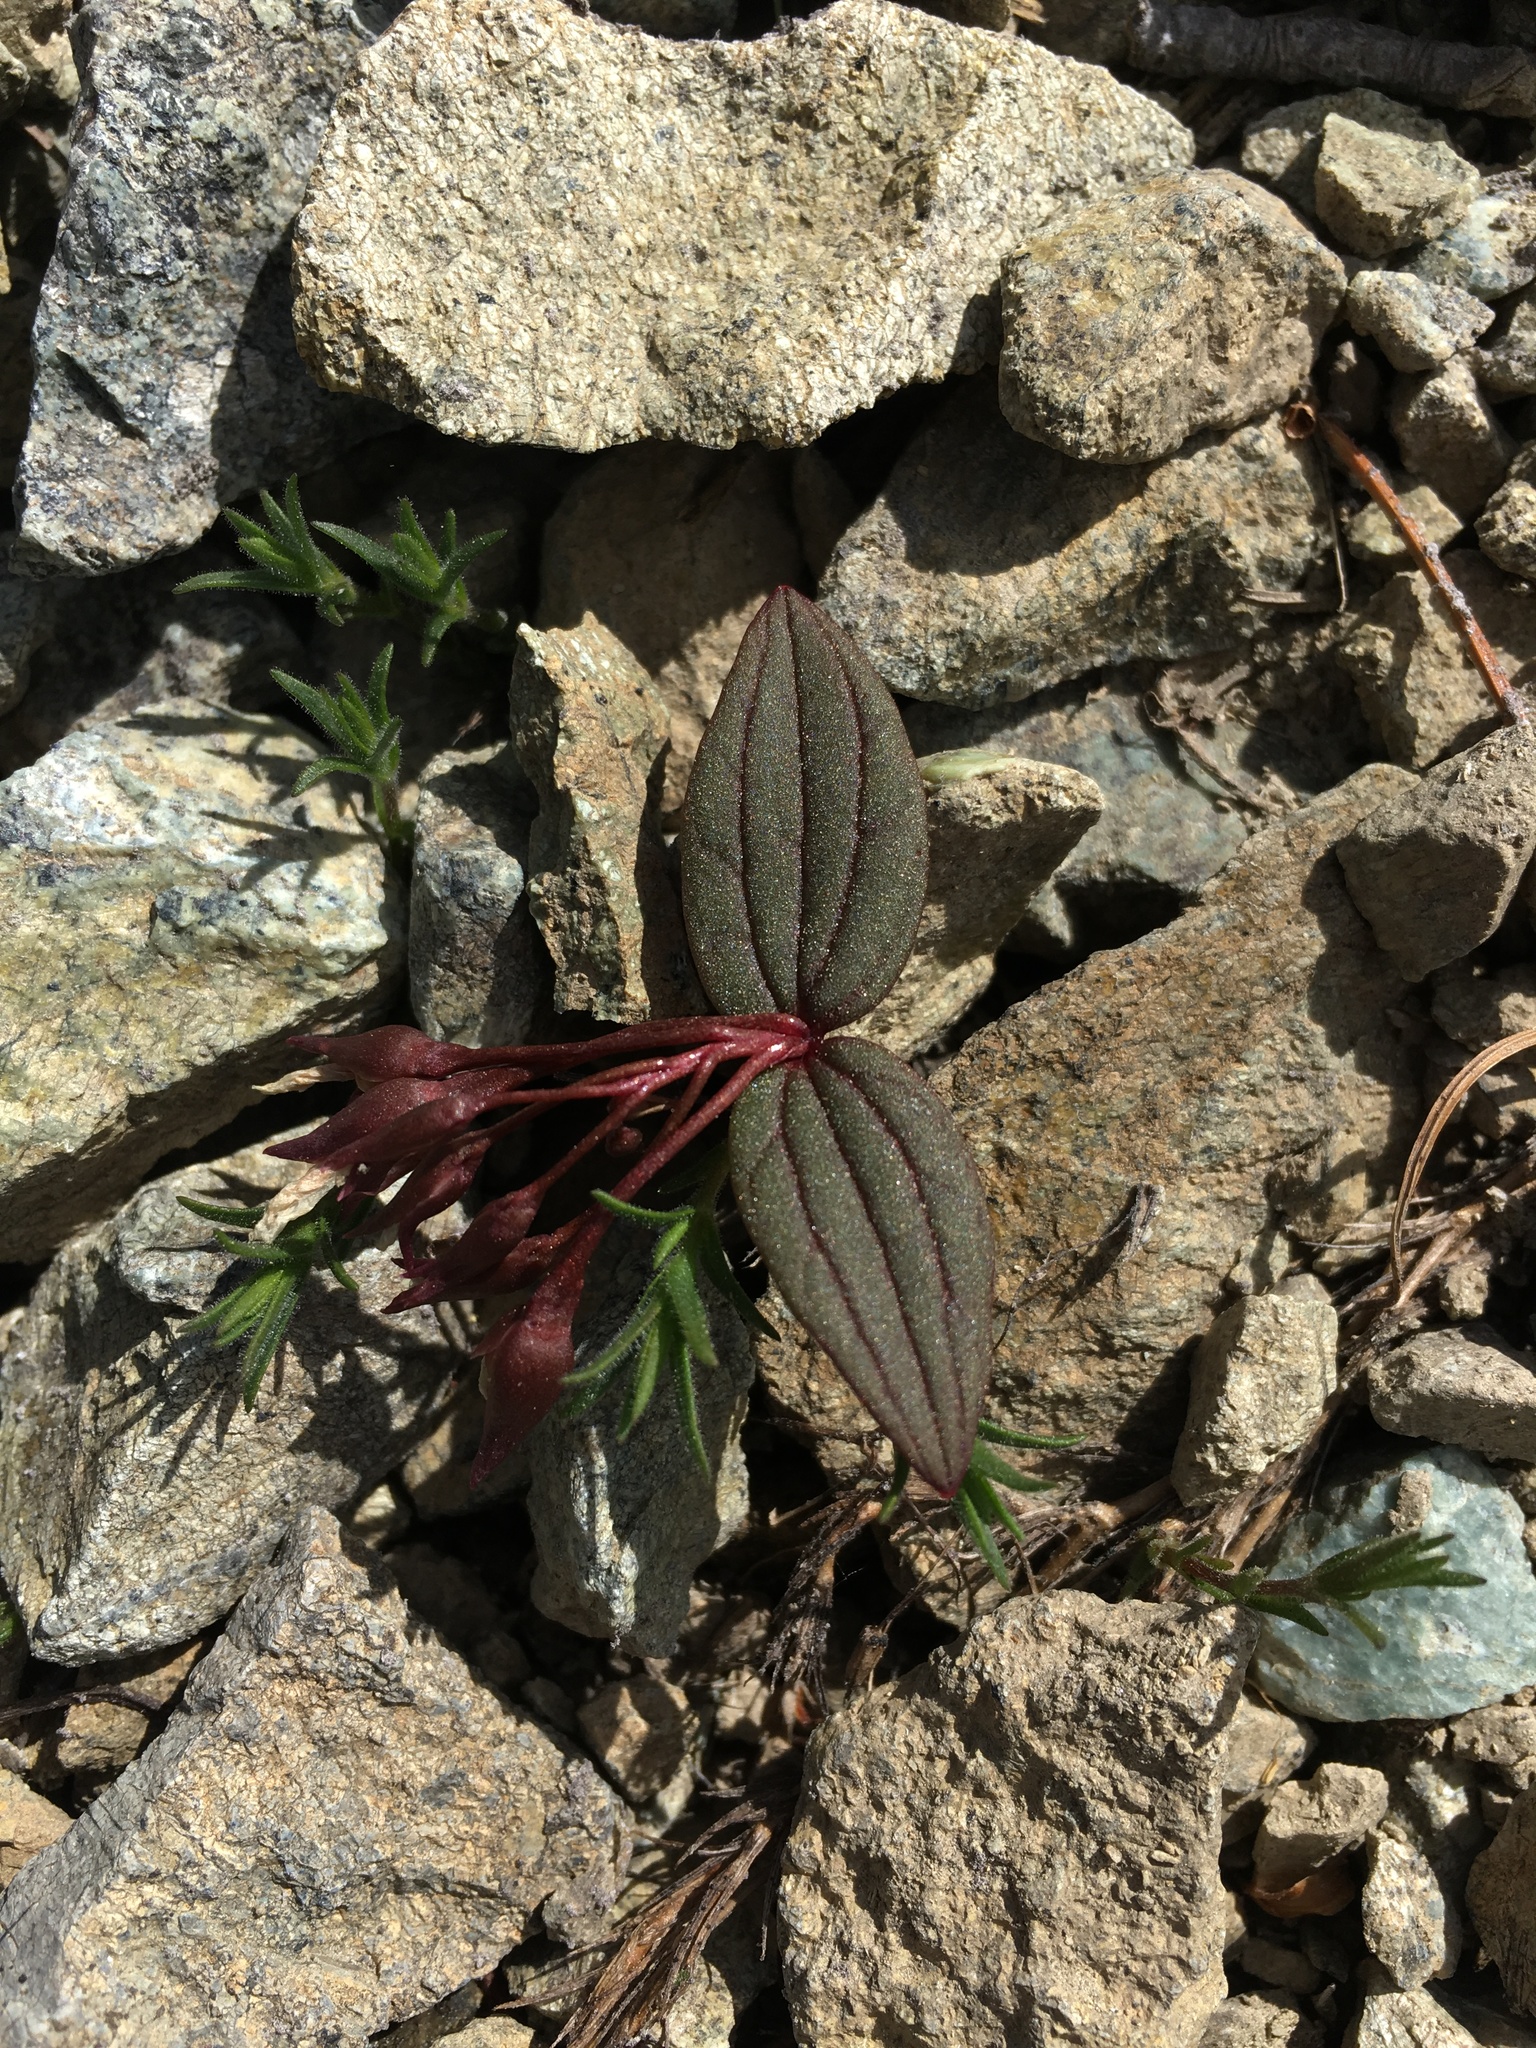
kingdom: Plantae
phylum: Tracheophyta
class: Magnoliopsida
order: Caryophyllales
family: Montiaceae
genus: Claytonia
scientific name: Claytonia obovata
